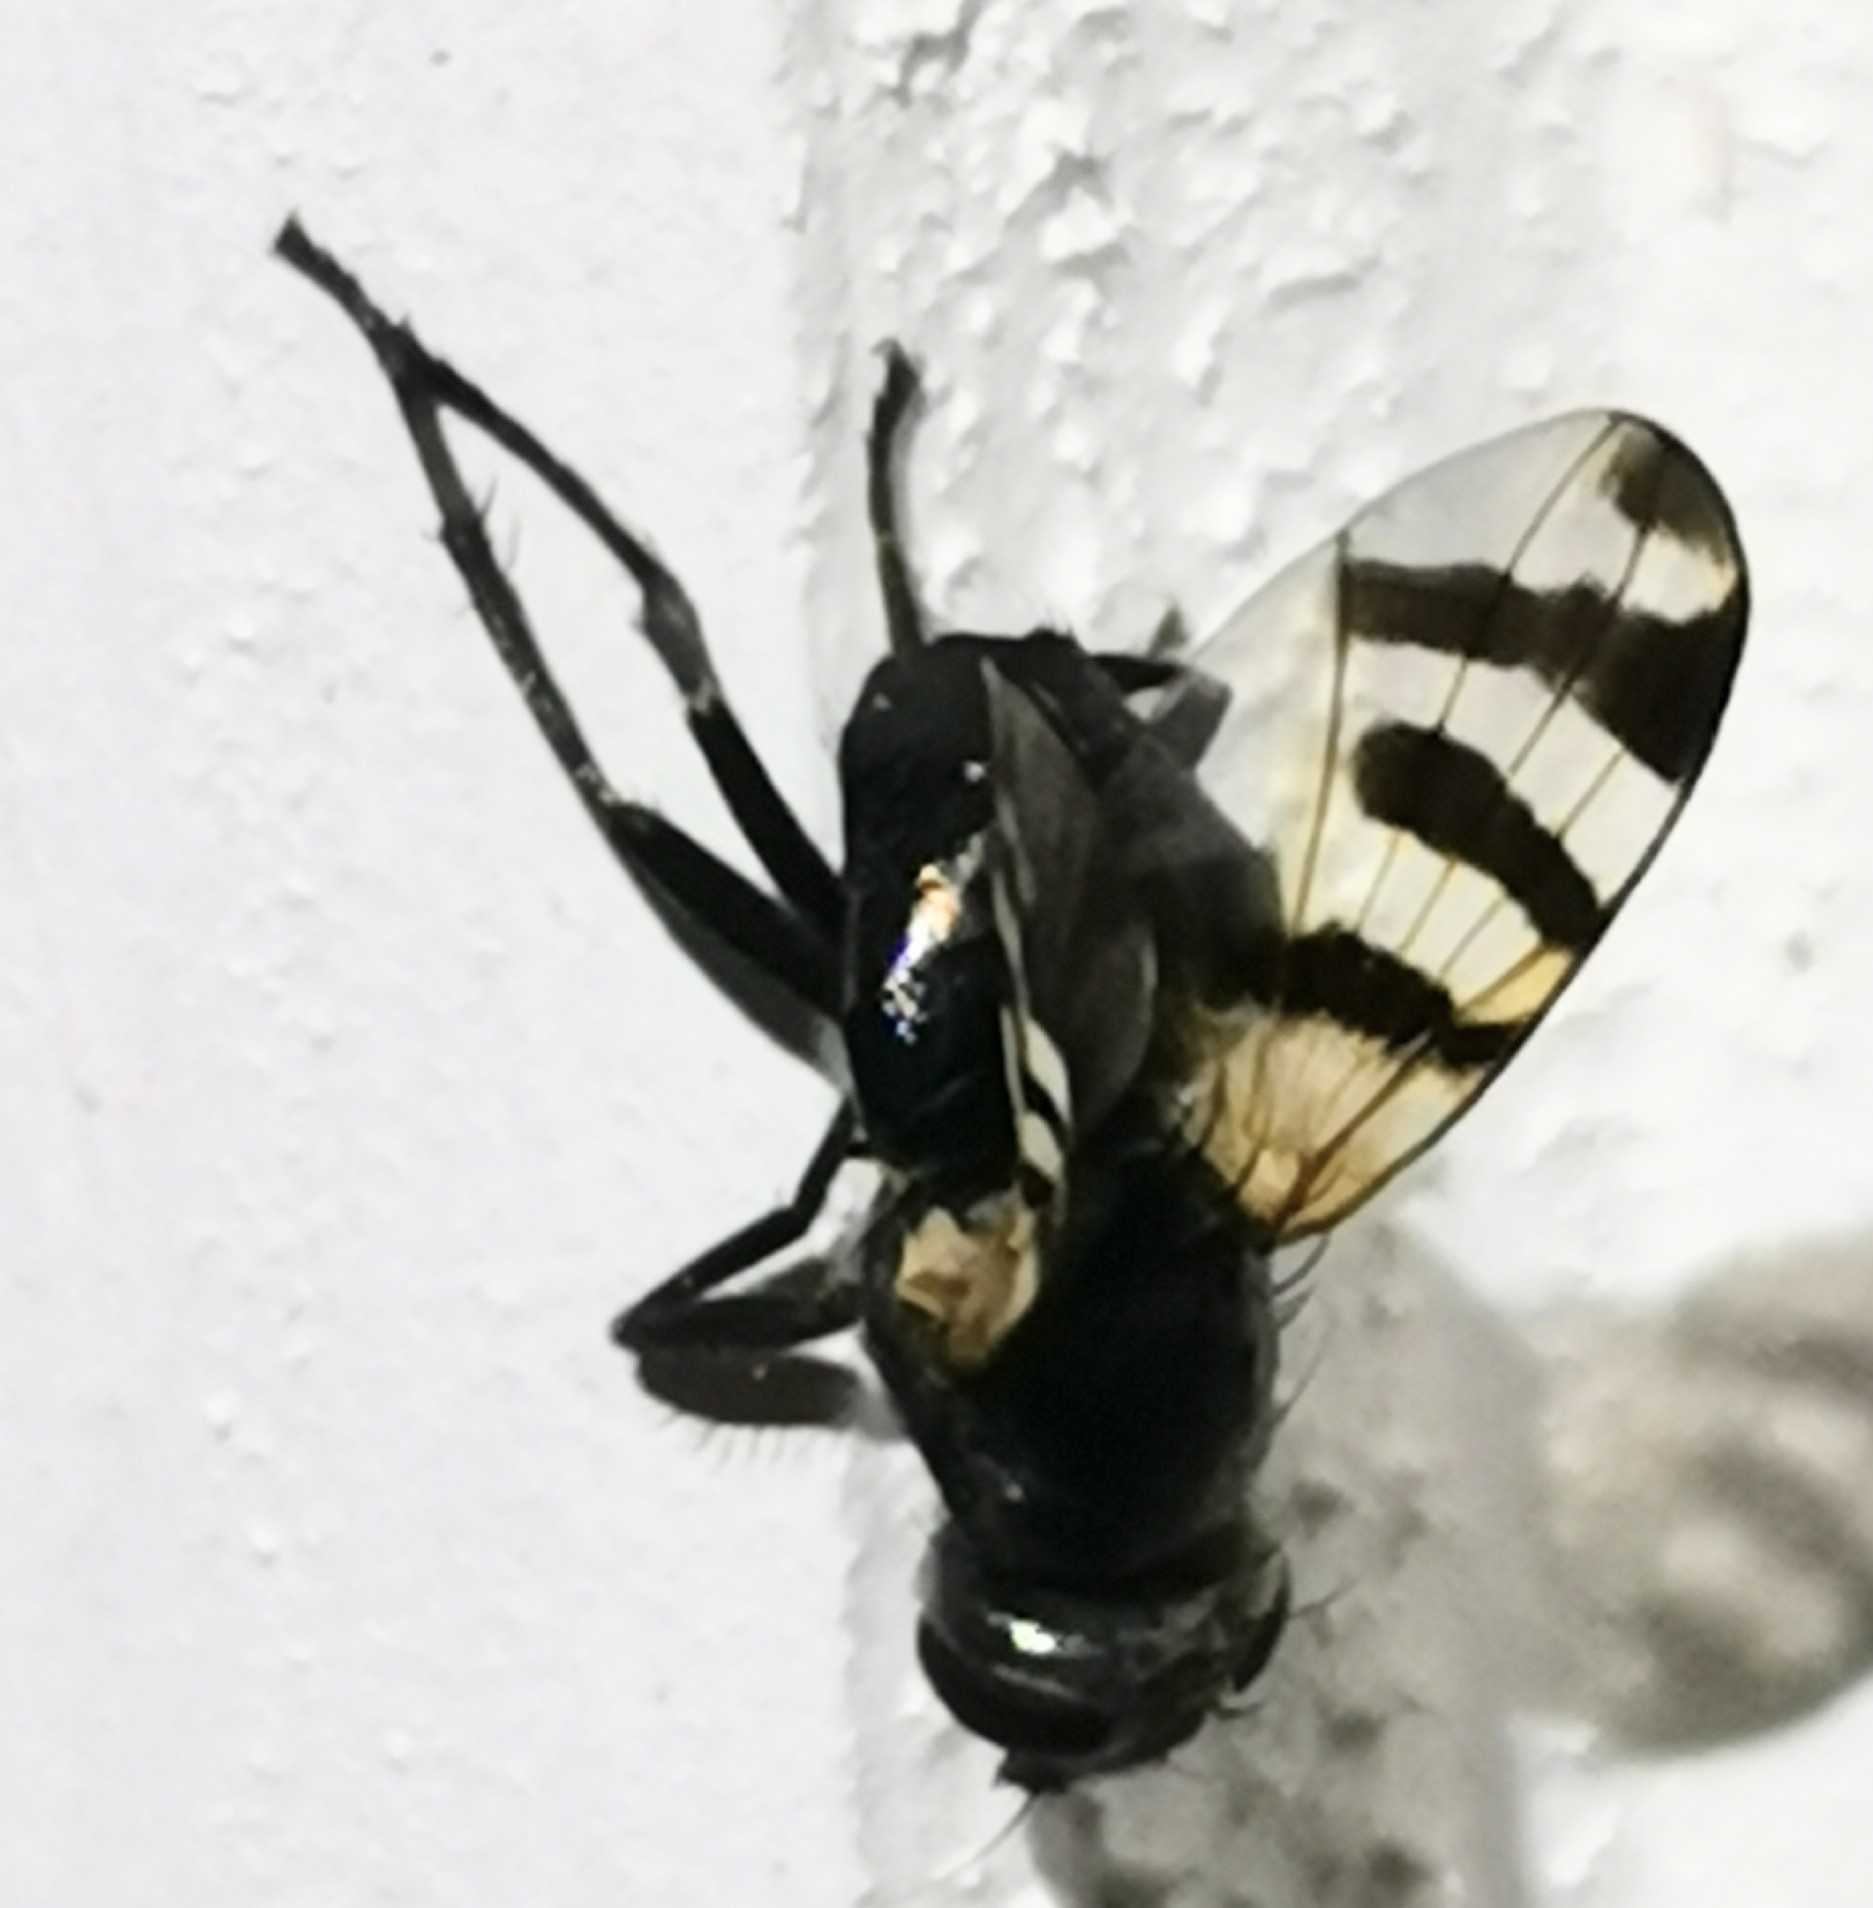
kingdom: Animalia
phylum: Arthropoda
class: Insecta
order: Diptera
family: Ulidiidae
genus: Ceroxys
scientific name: Ceroxys urticae
